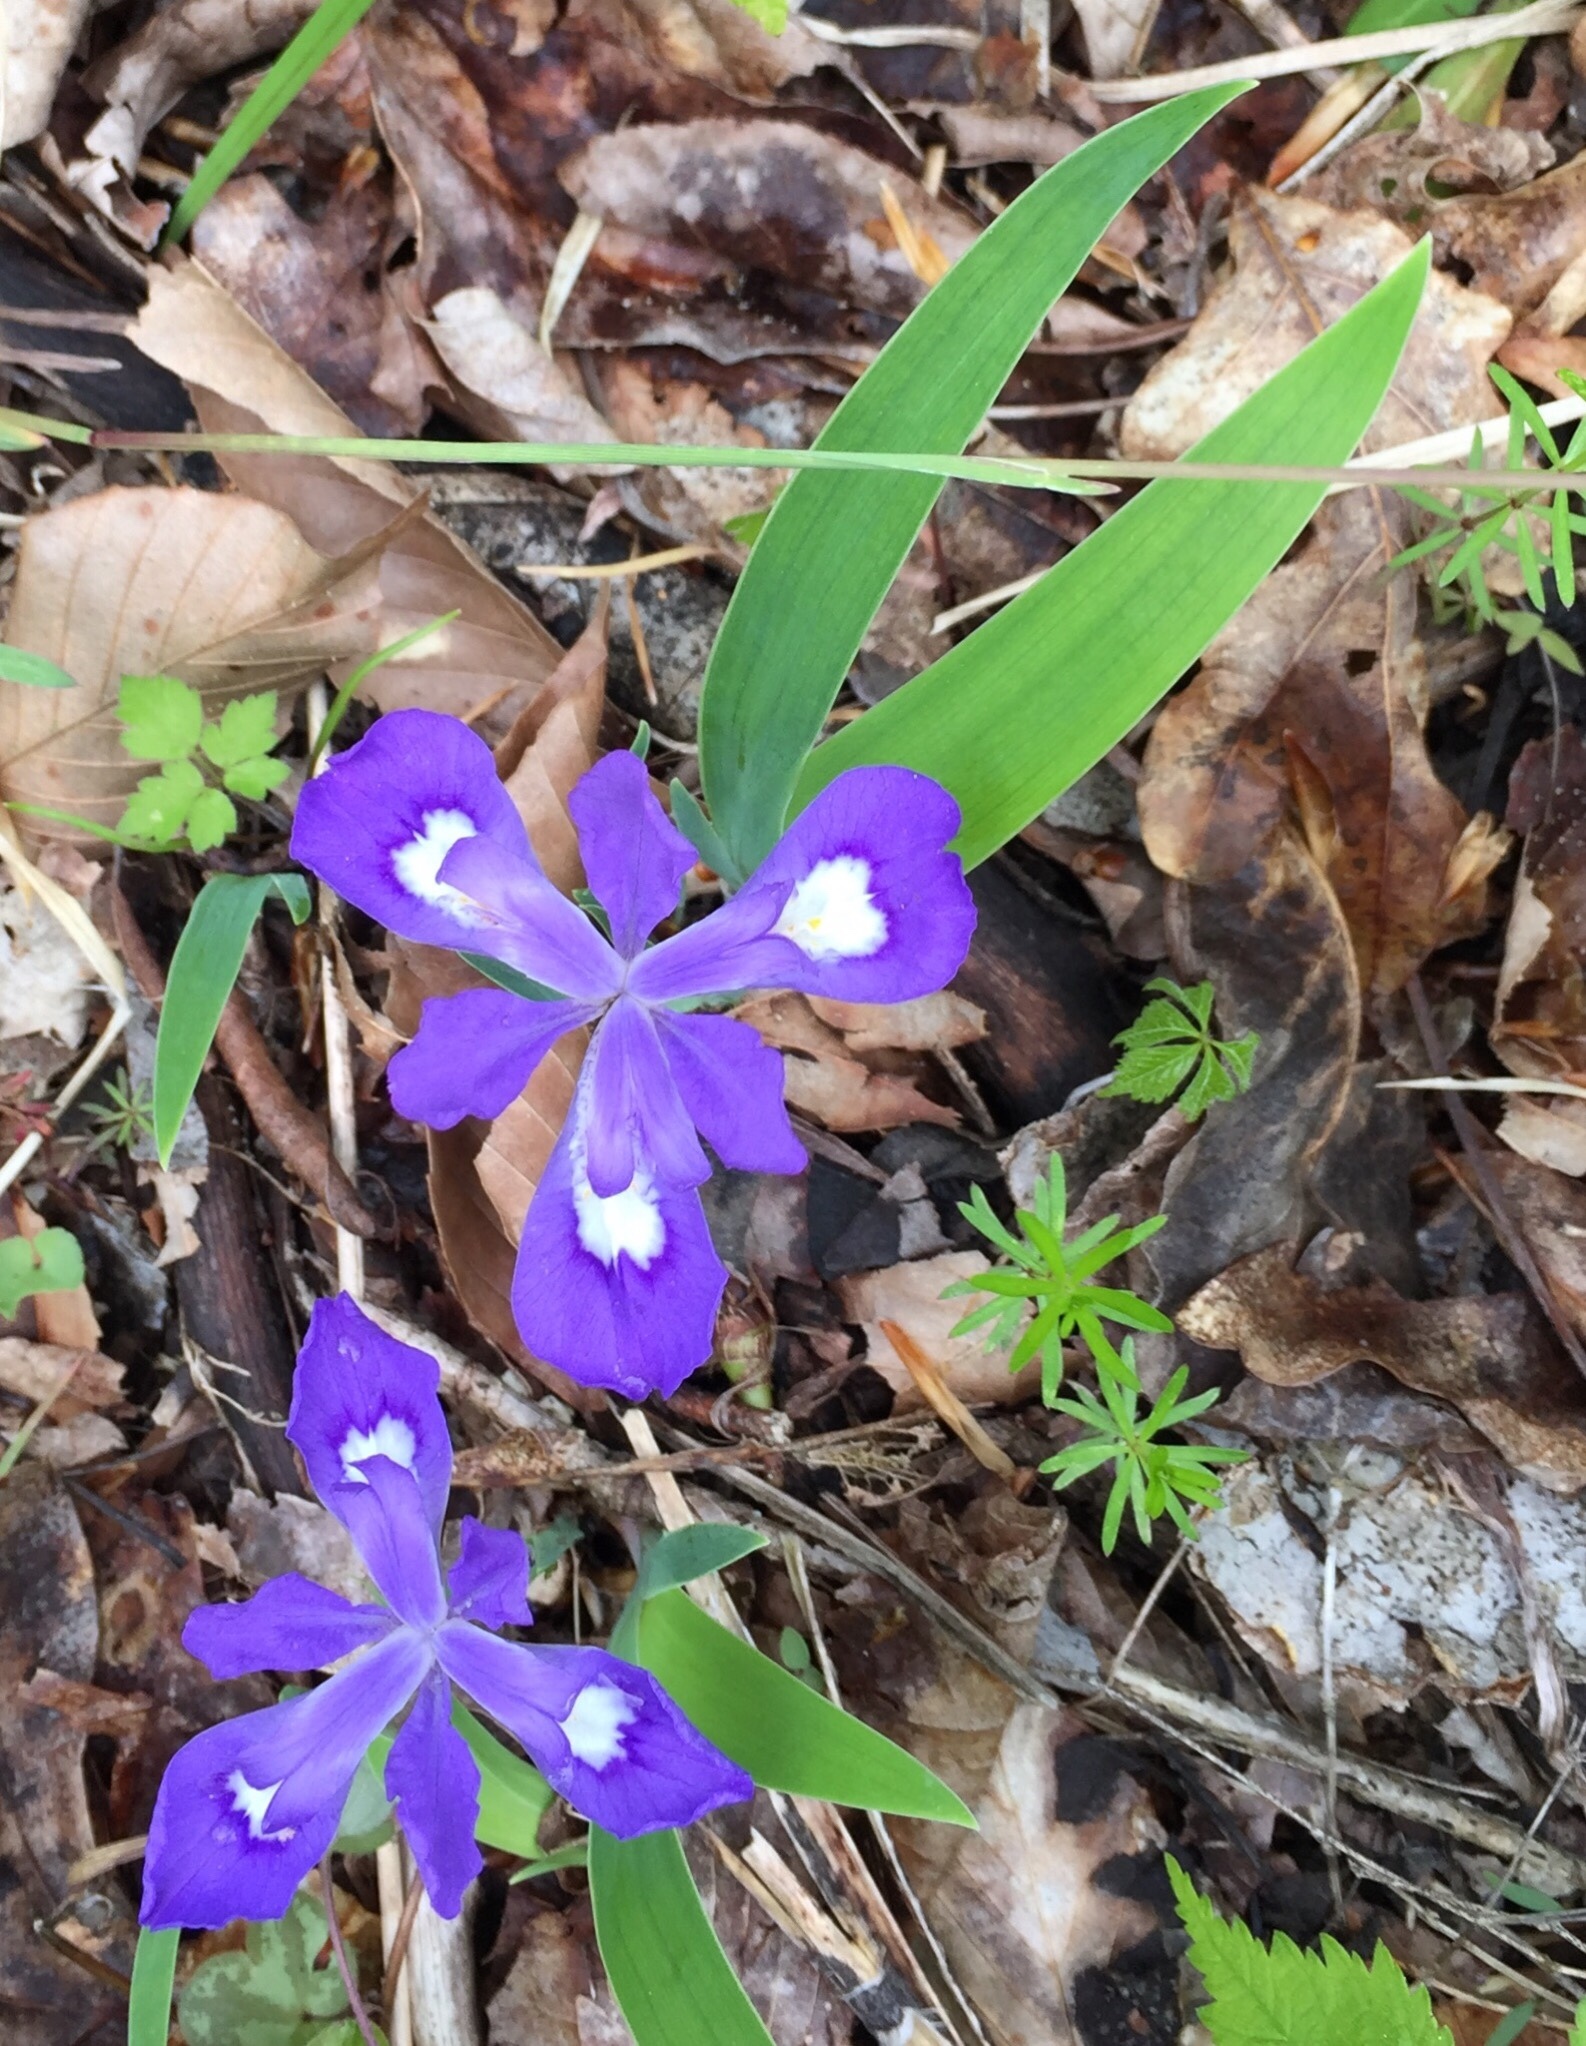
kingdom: Plantae
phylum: Tracheophyta
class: Liliopsida
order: Asparagales
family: Iridaceae
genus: Iris
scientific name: Iris cristata
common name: Crested iris
